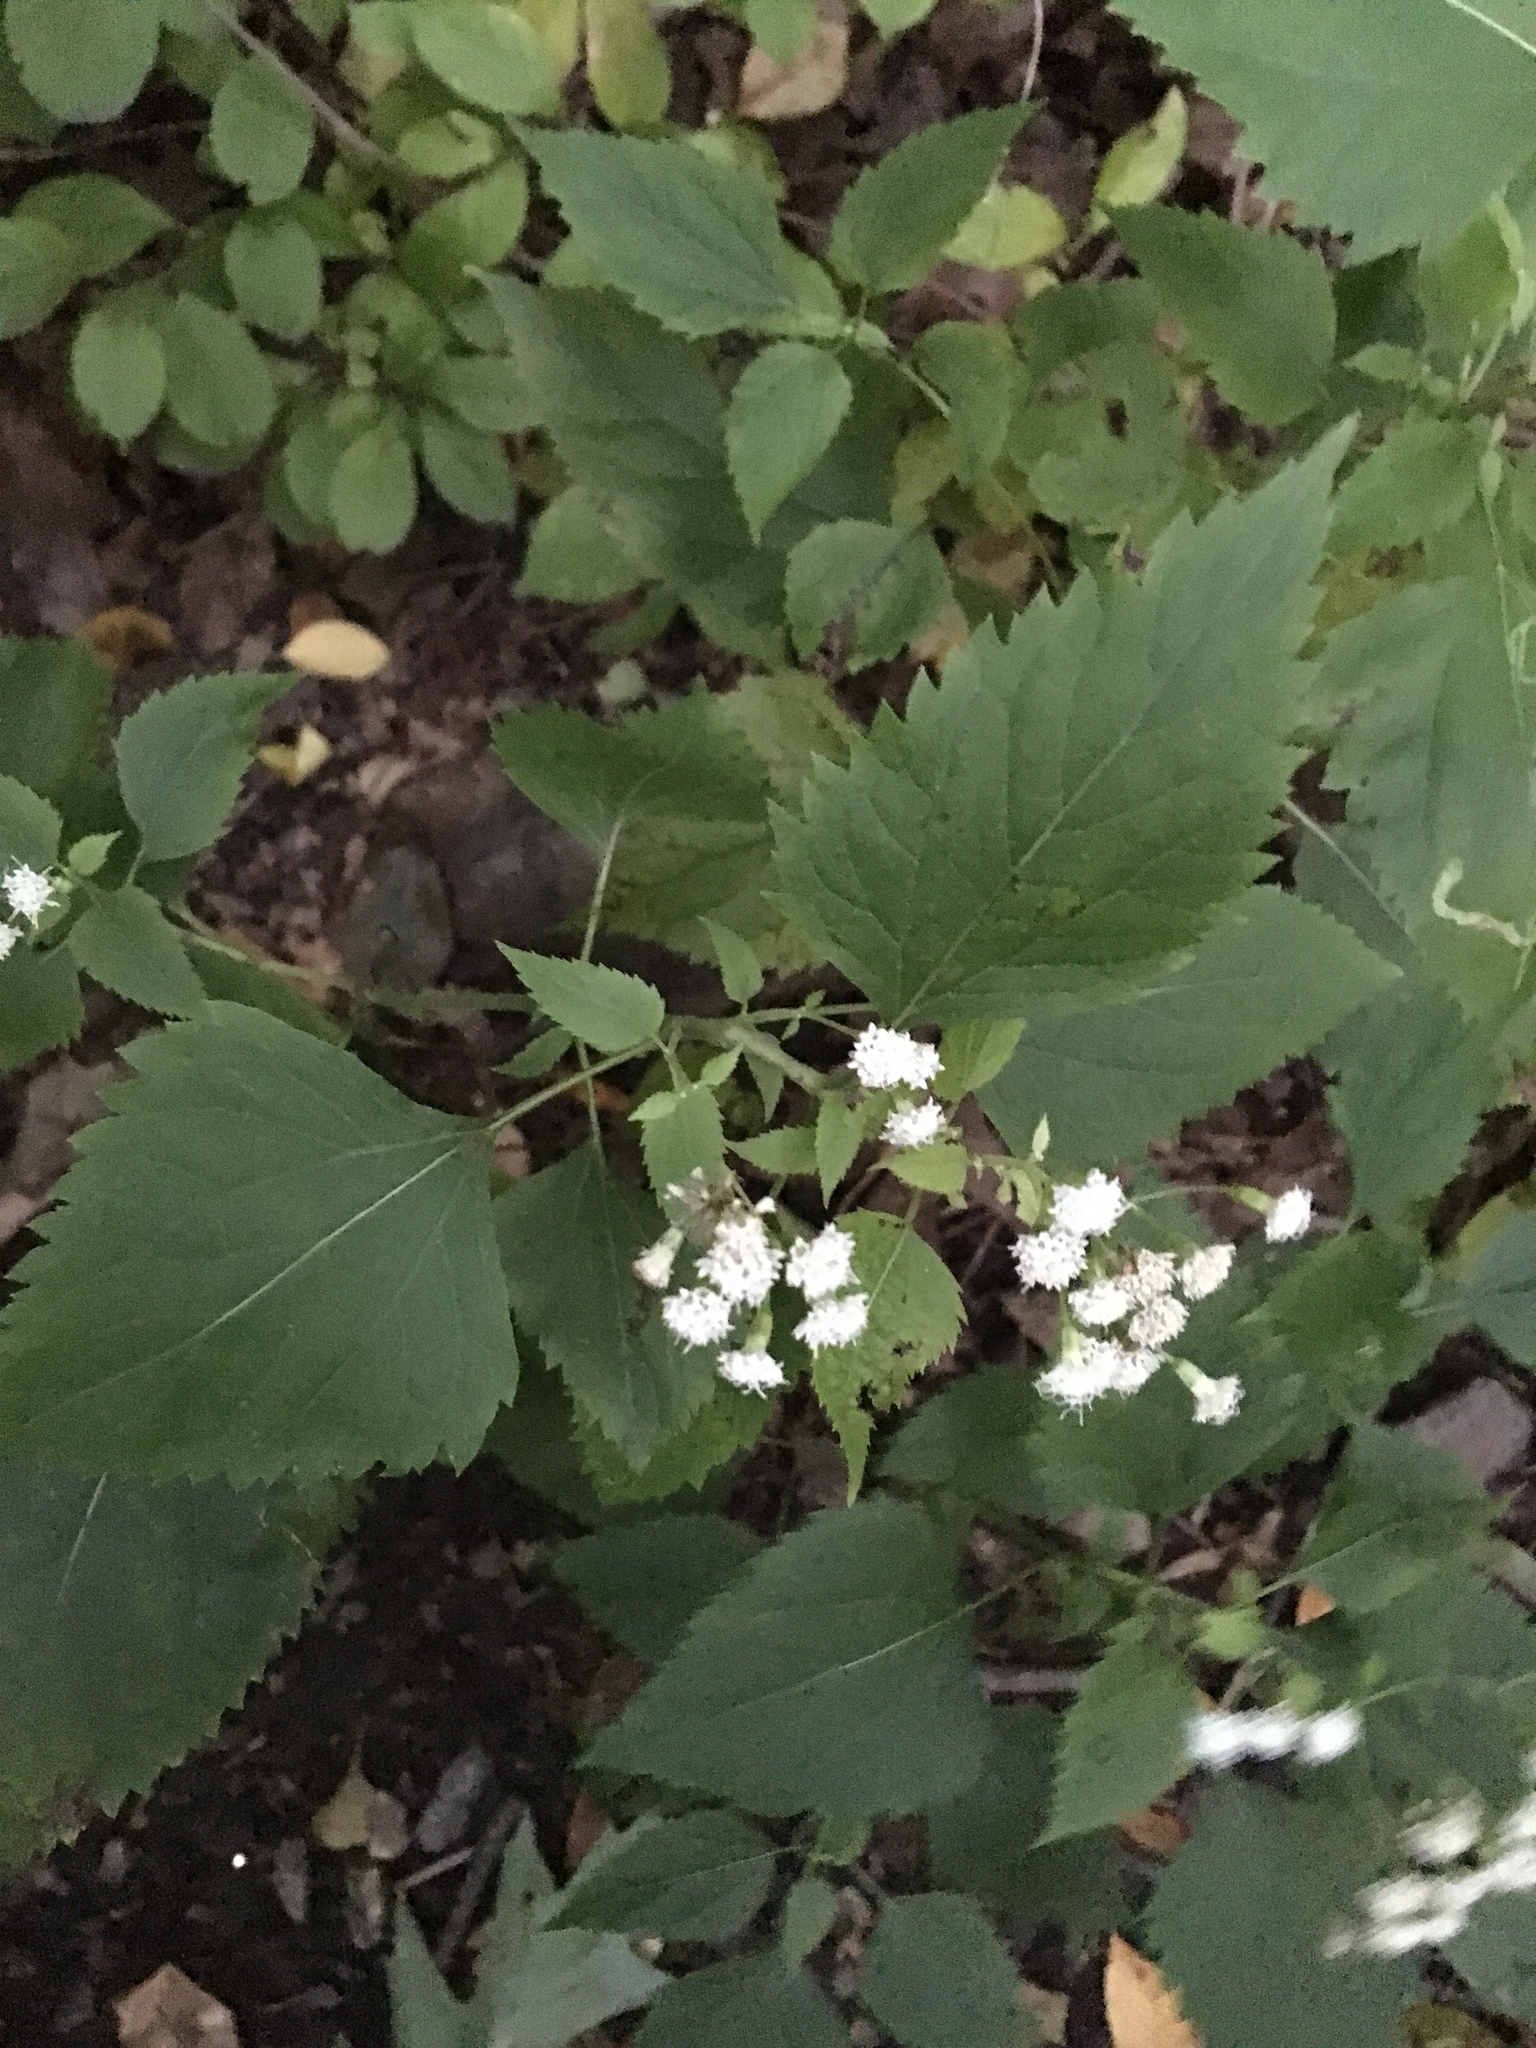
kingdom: Plantae
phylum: Tracheophyta
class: Magnoliopsida
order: Asterales
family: Asteraceae
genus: Ageratina
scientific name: Ageratina altissima
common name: White snakeroot
